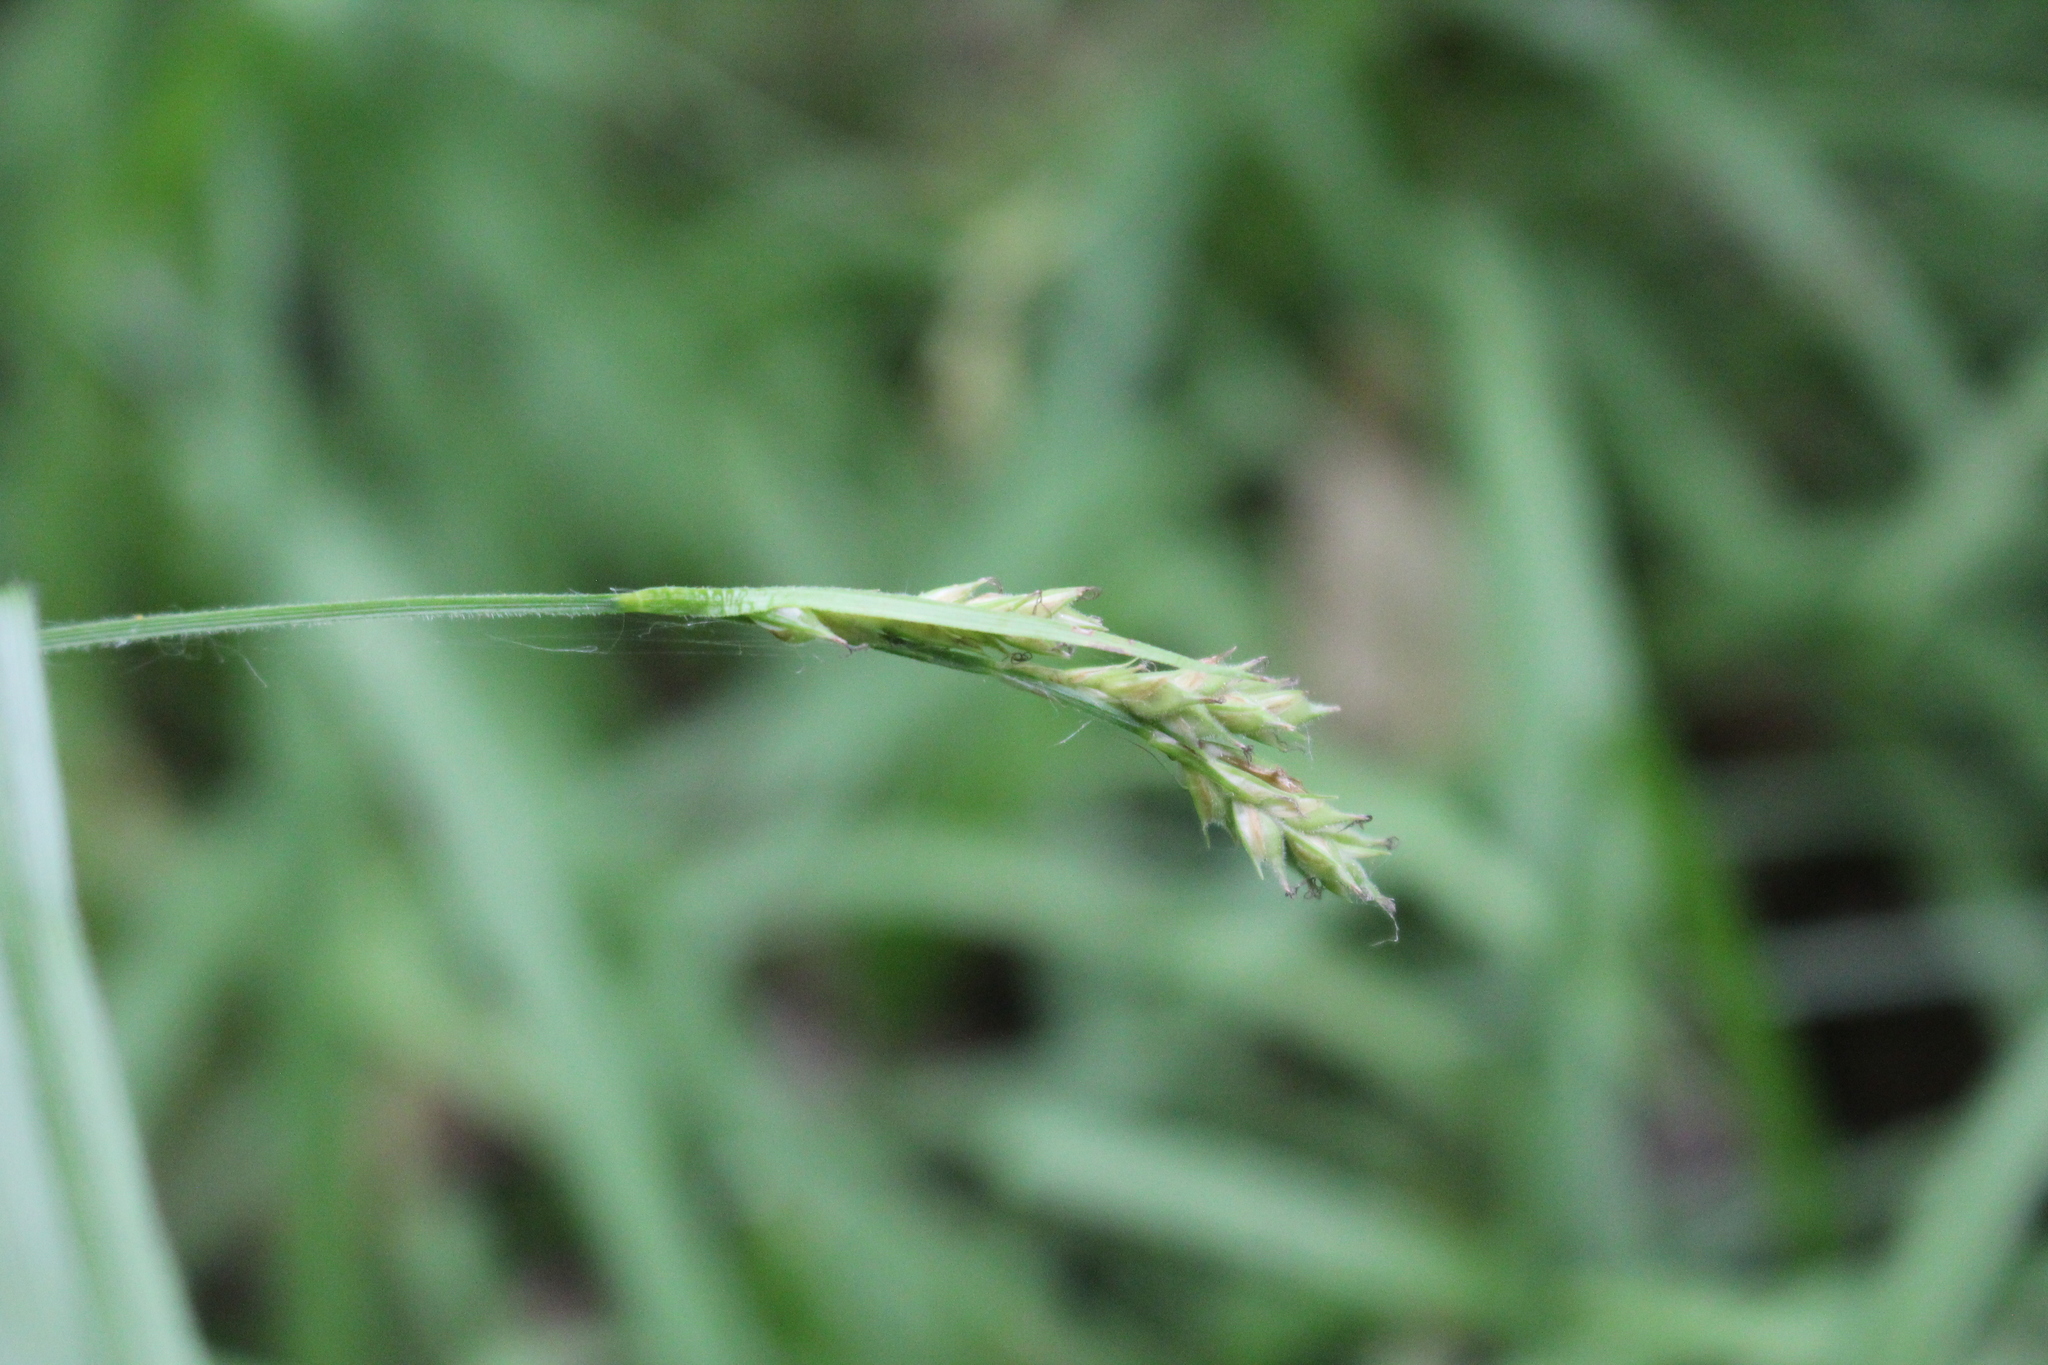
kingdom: Plantae
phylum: Tracheophyta
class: Liliopsida
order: Poales
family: Cyperaceae
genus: Carex
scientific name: Carex hirtifolia
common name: Hairy sedge
